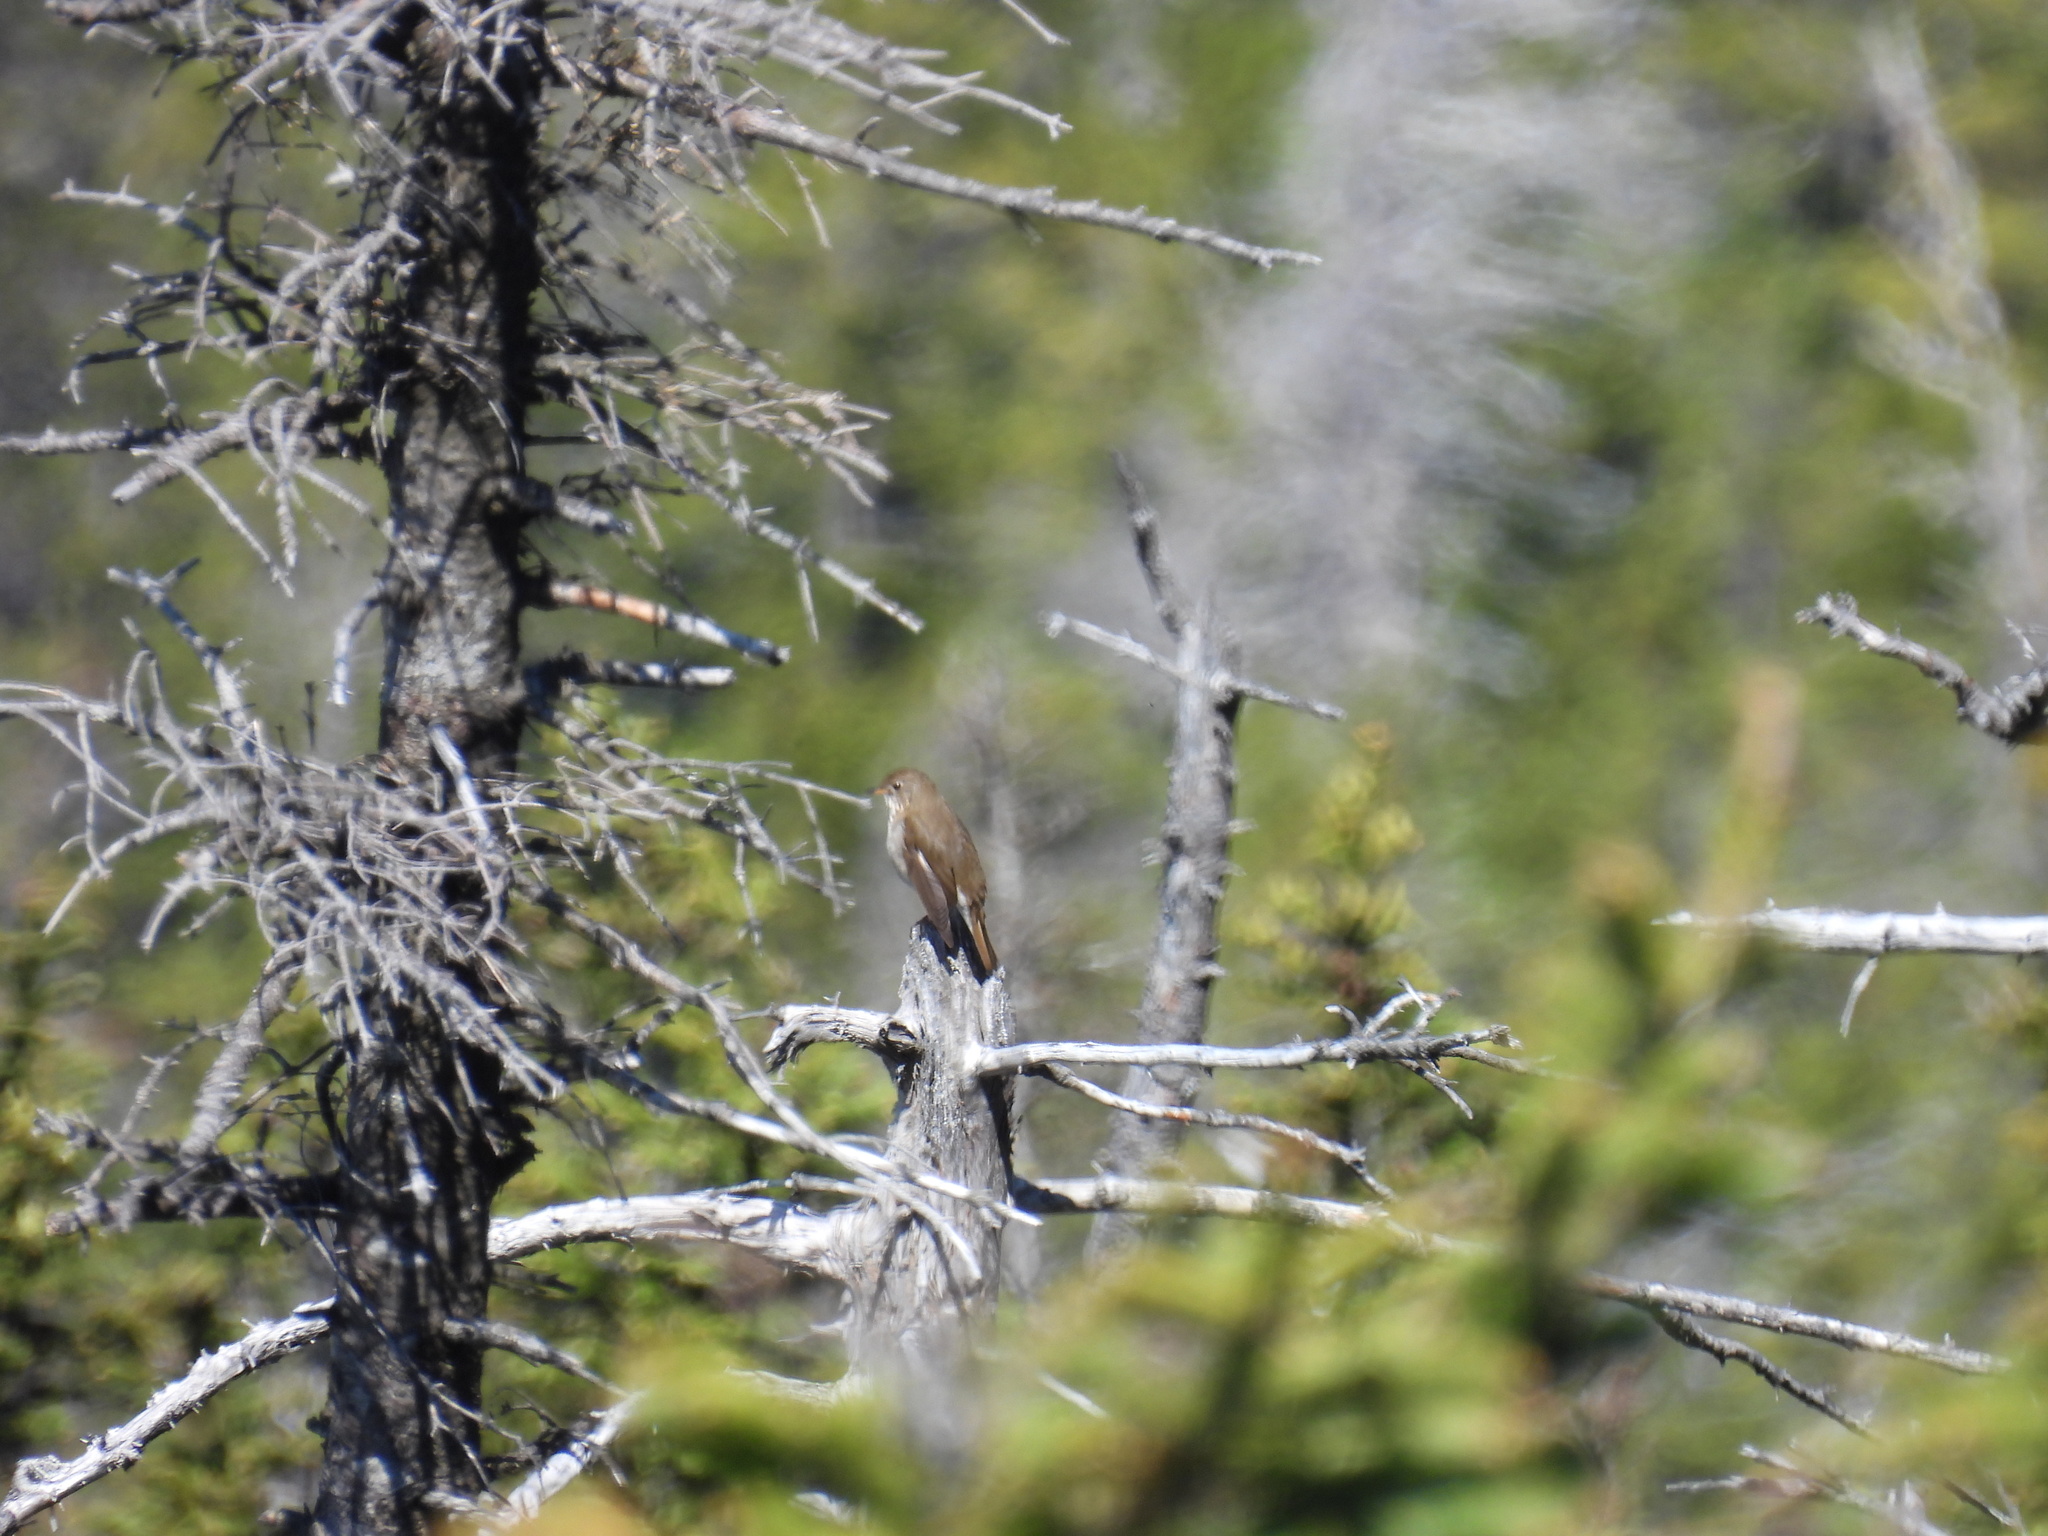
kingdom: Animalia
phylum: Chordata
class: Aves
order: Passeriformes
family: Turdidae
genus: Catharus
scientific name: Catharus bicknelli
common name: Bicknell's thrush
